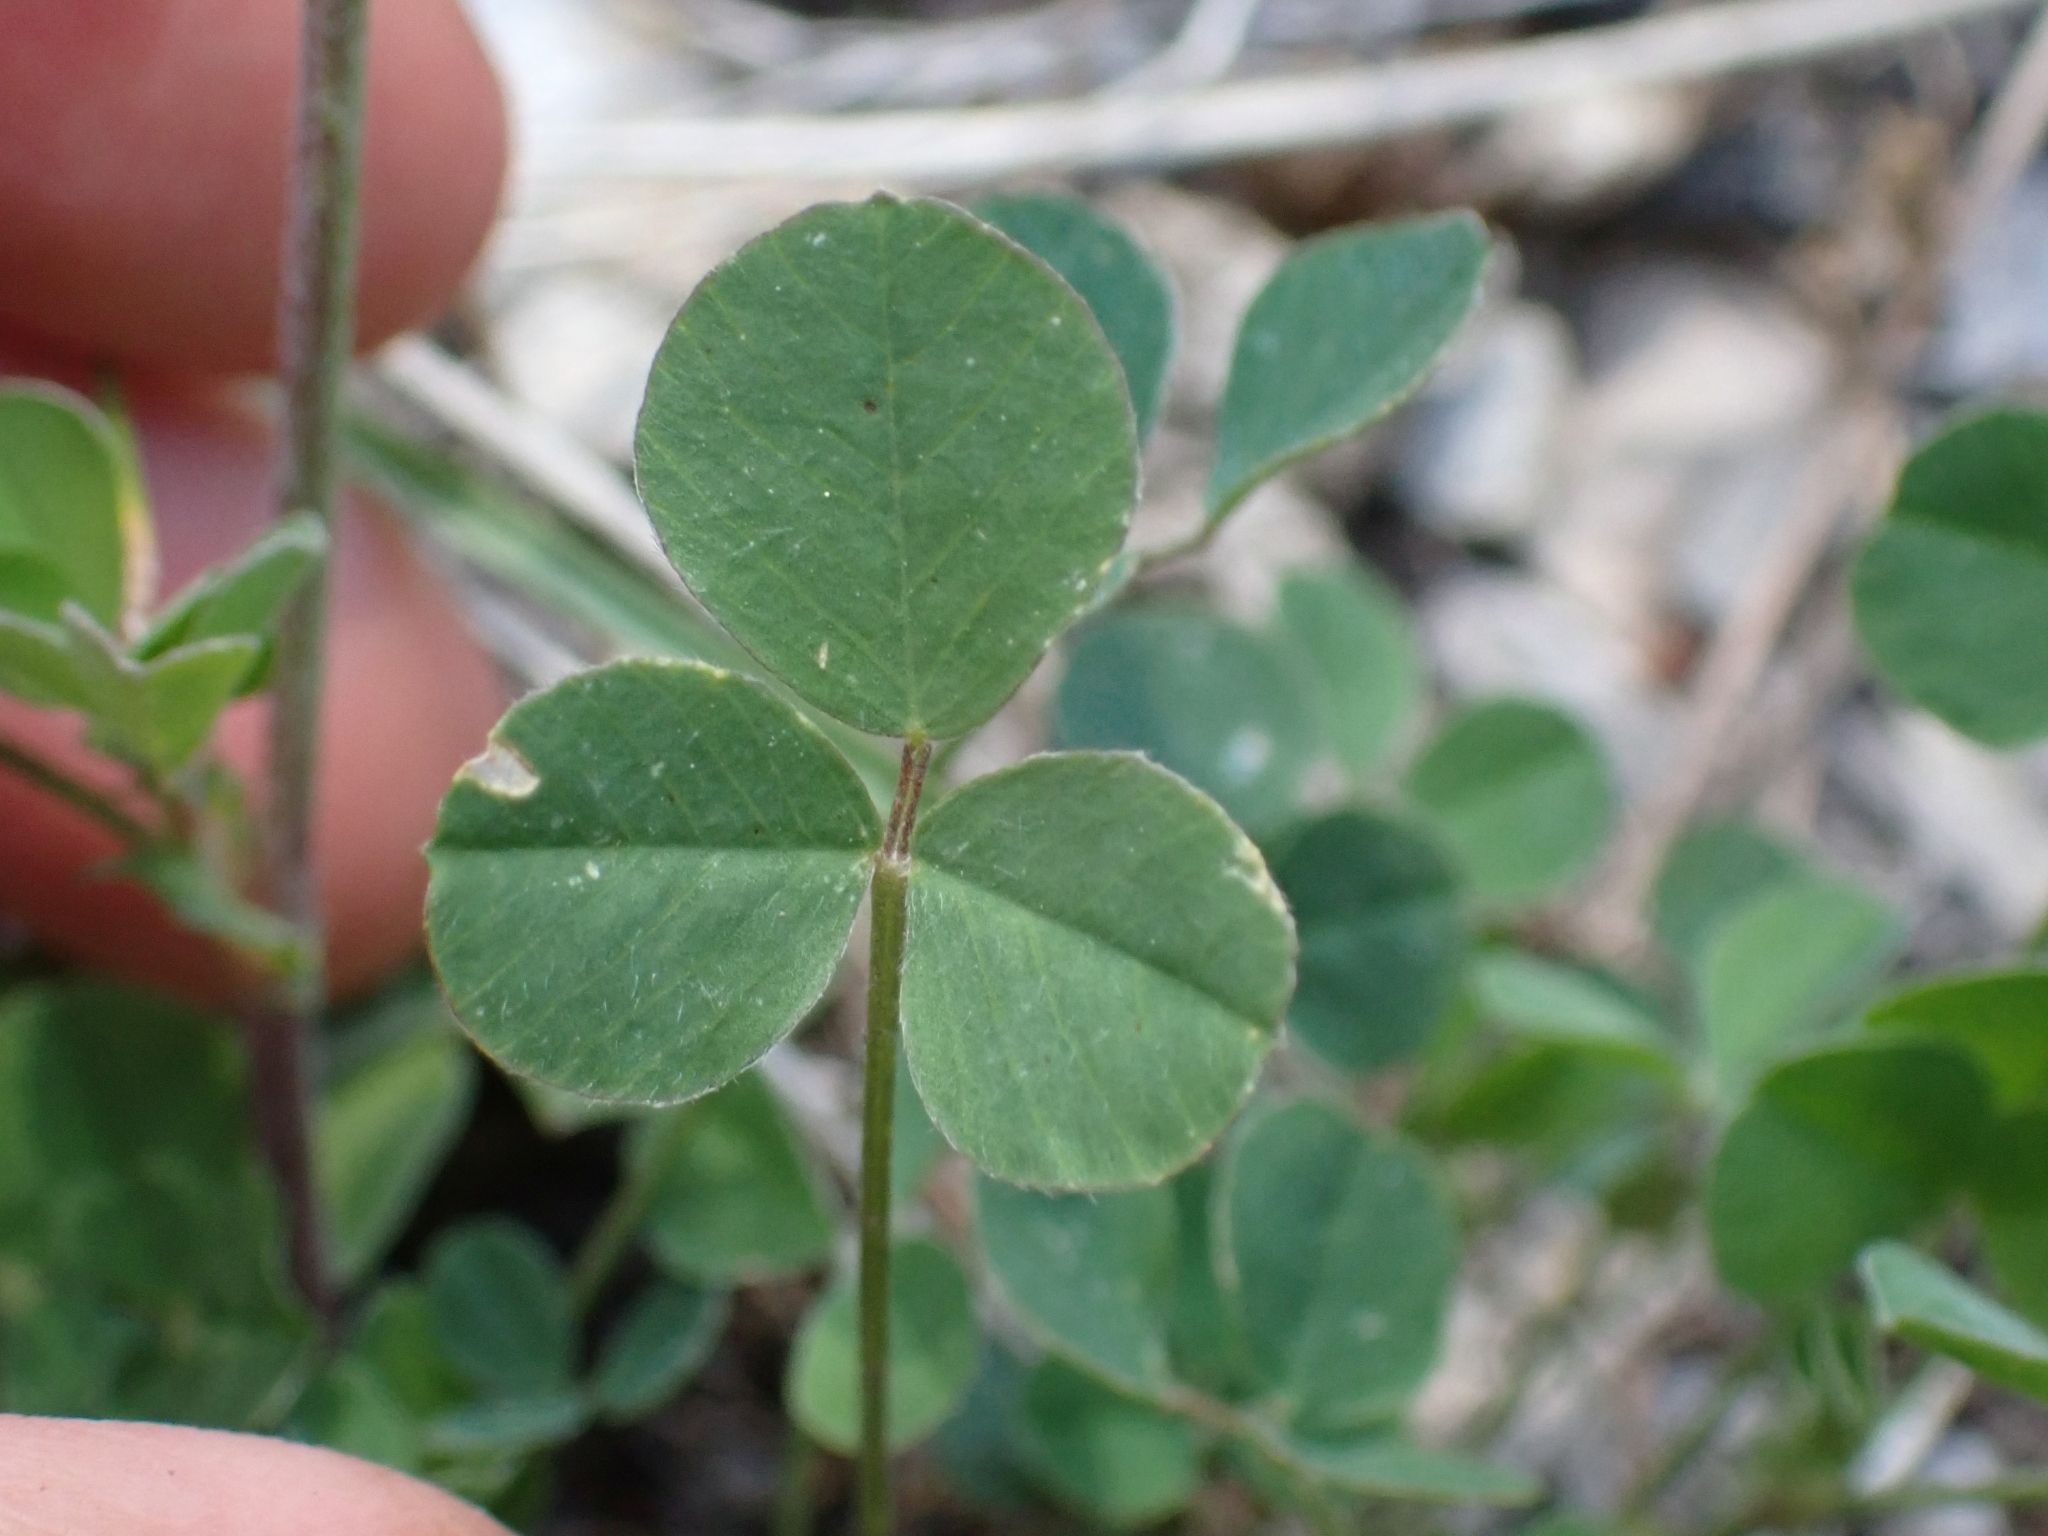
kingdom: Plantae
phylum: Tracheophyta
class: Magnoliopsida
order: Fabales
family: Fabaceae
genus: Medicago
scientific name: Medicago lupulina
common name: Black medick
